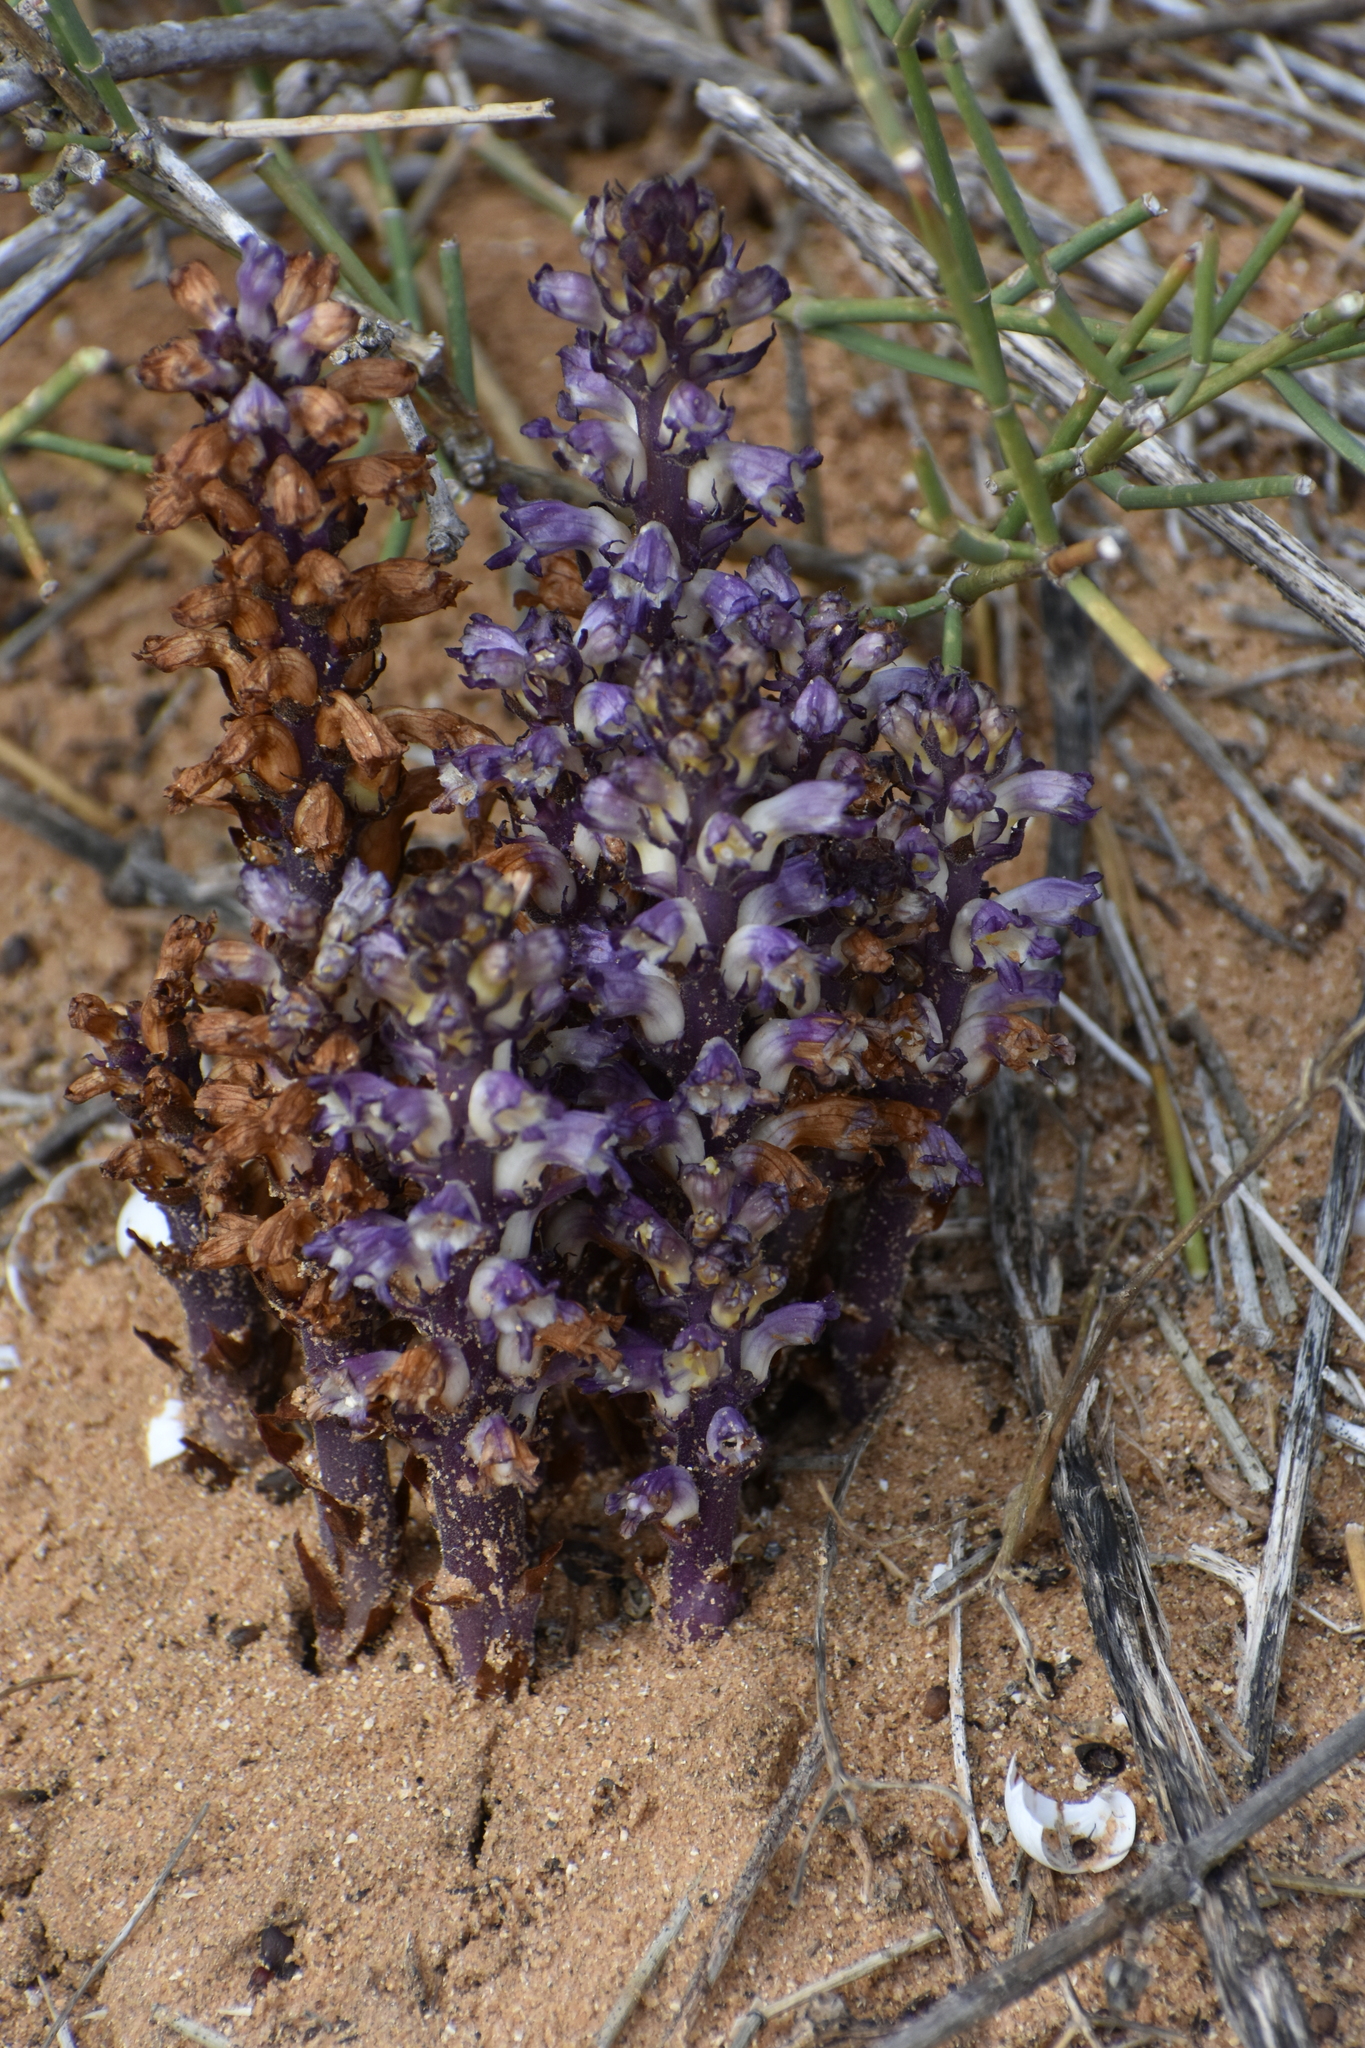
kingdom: Plantae
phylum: Tracheophyta
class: Magnoliopsida
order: Lamiales
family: Orobanchaceae
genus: Orobanche
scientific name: Orobanche cernua
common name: Australian broomrape
